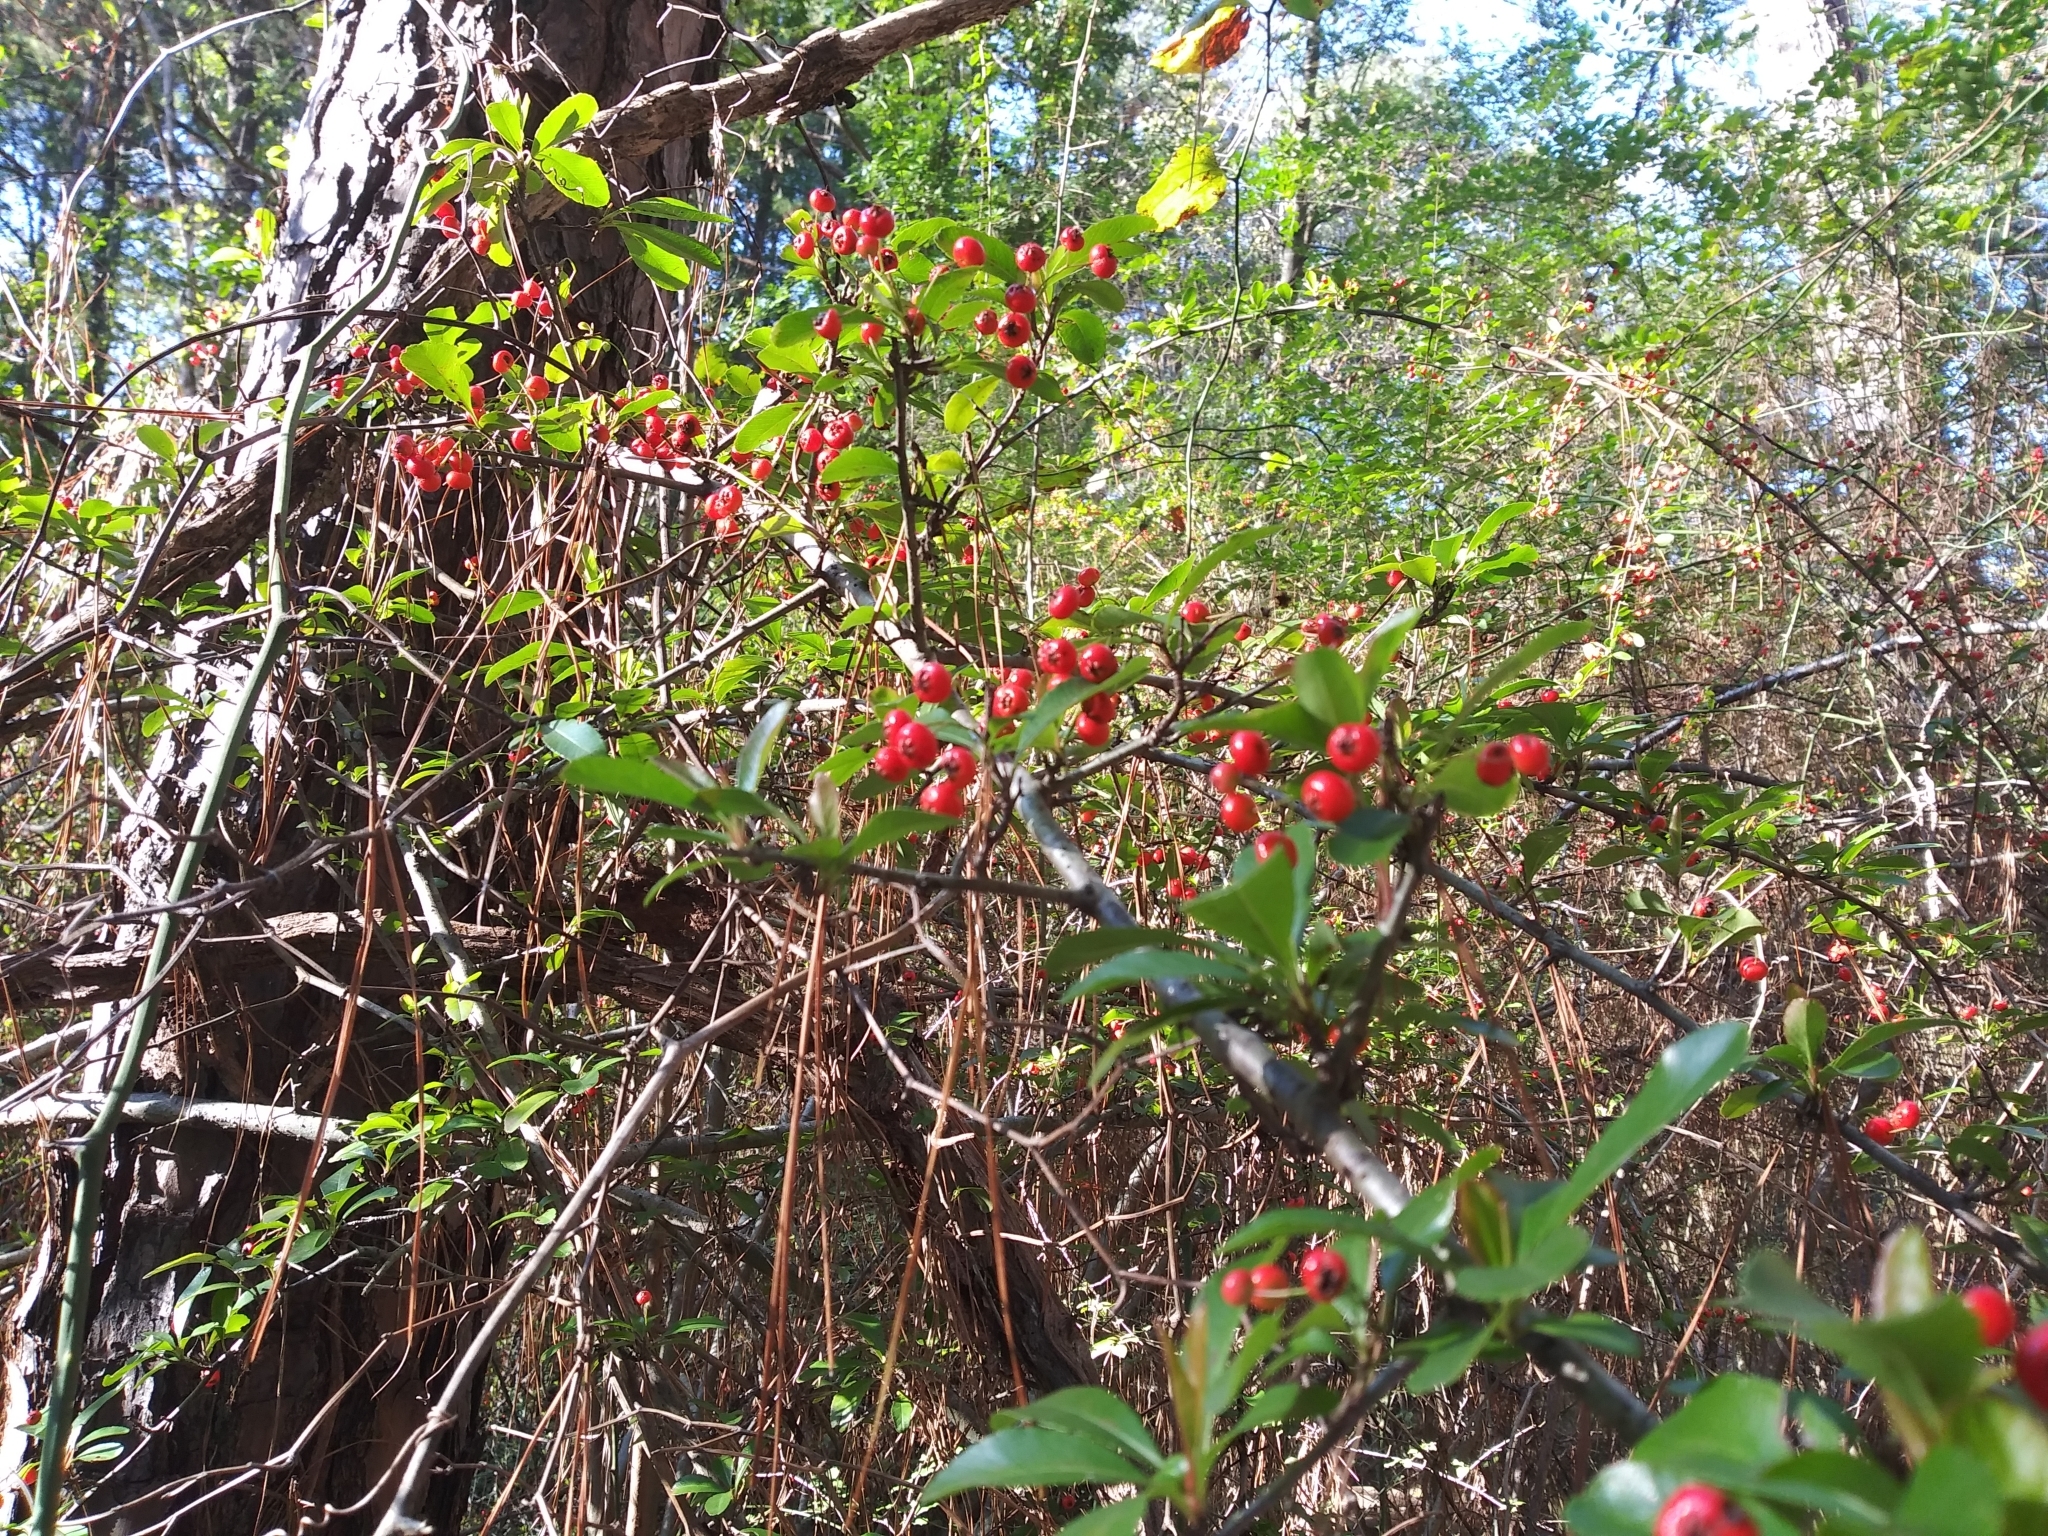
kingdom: Plantae
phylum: Tracheophyta
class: Magnoliopsida
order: Rosales
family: Rosaceae
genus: Pyracantha
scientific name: Pyracantha coccinea
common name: Firethorn
